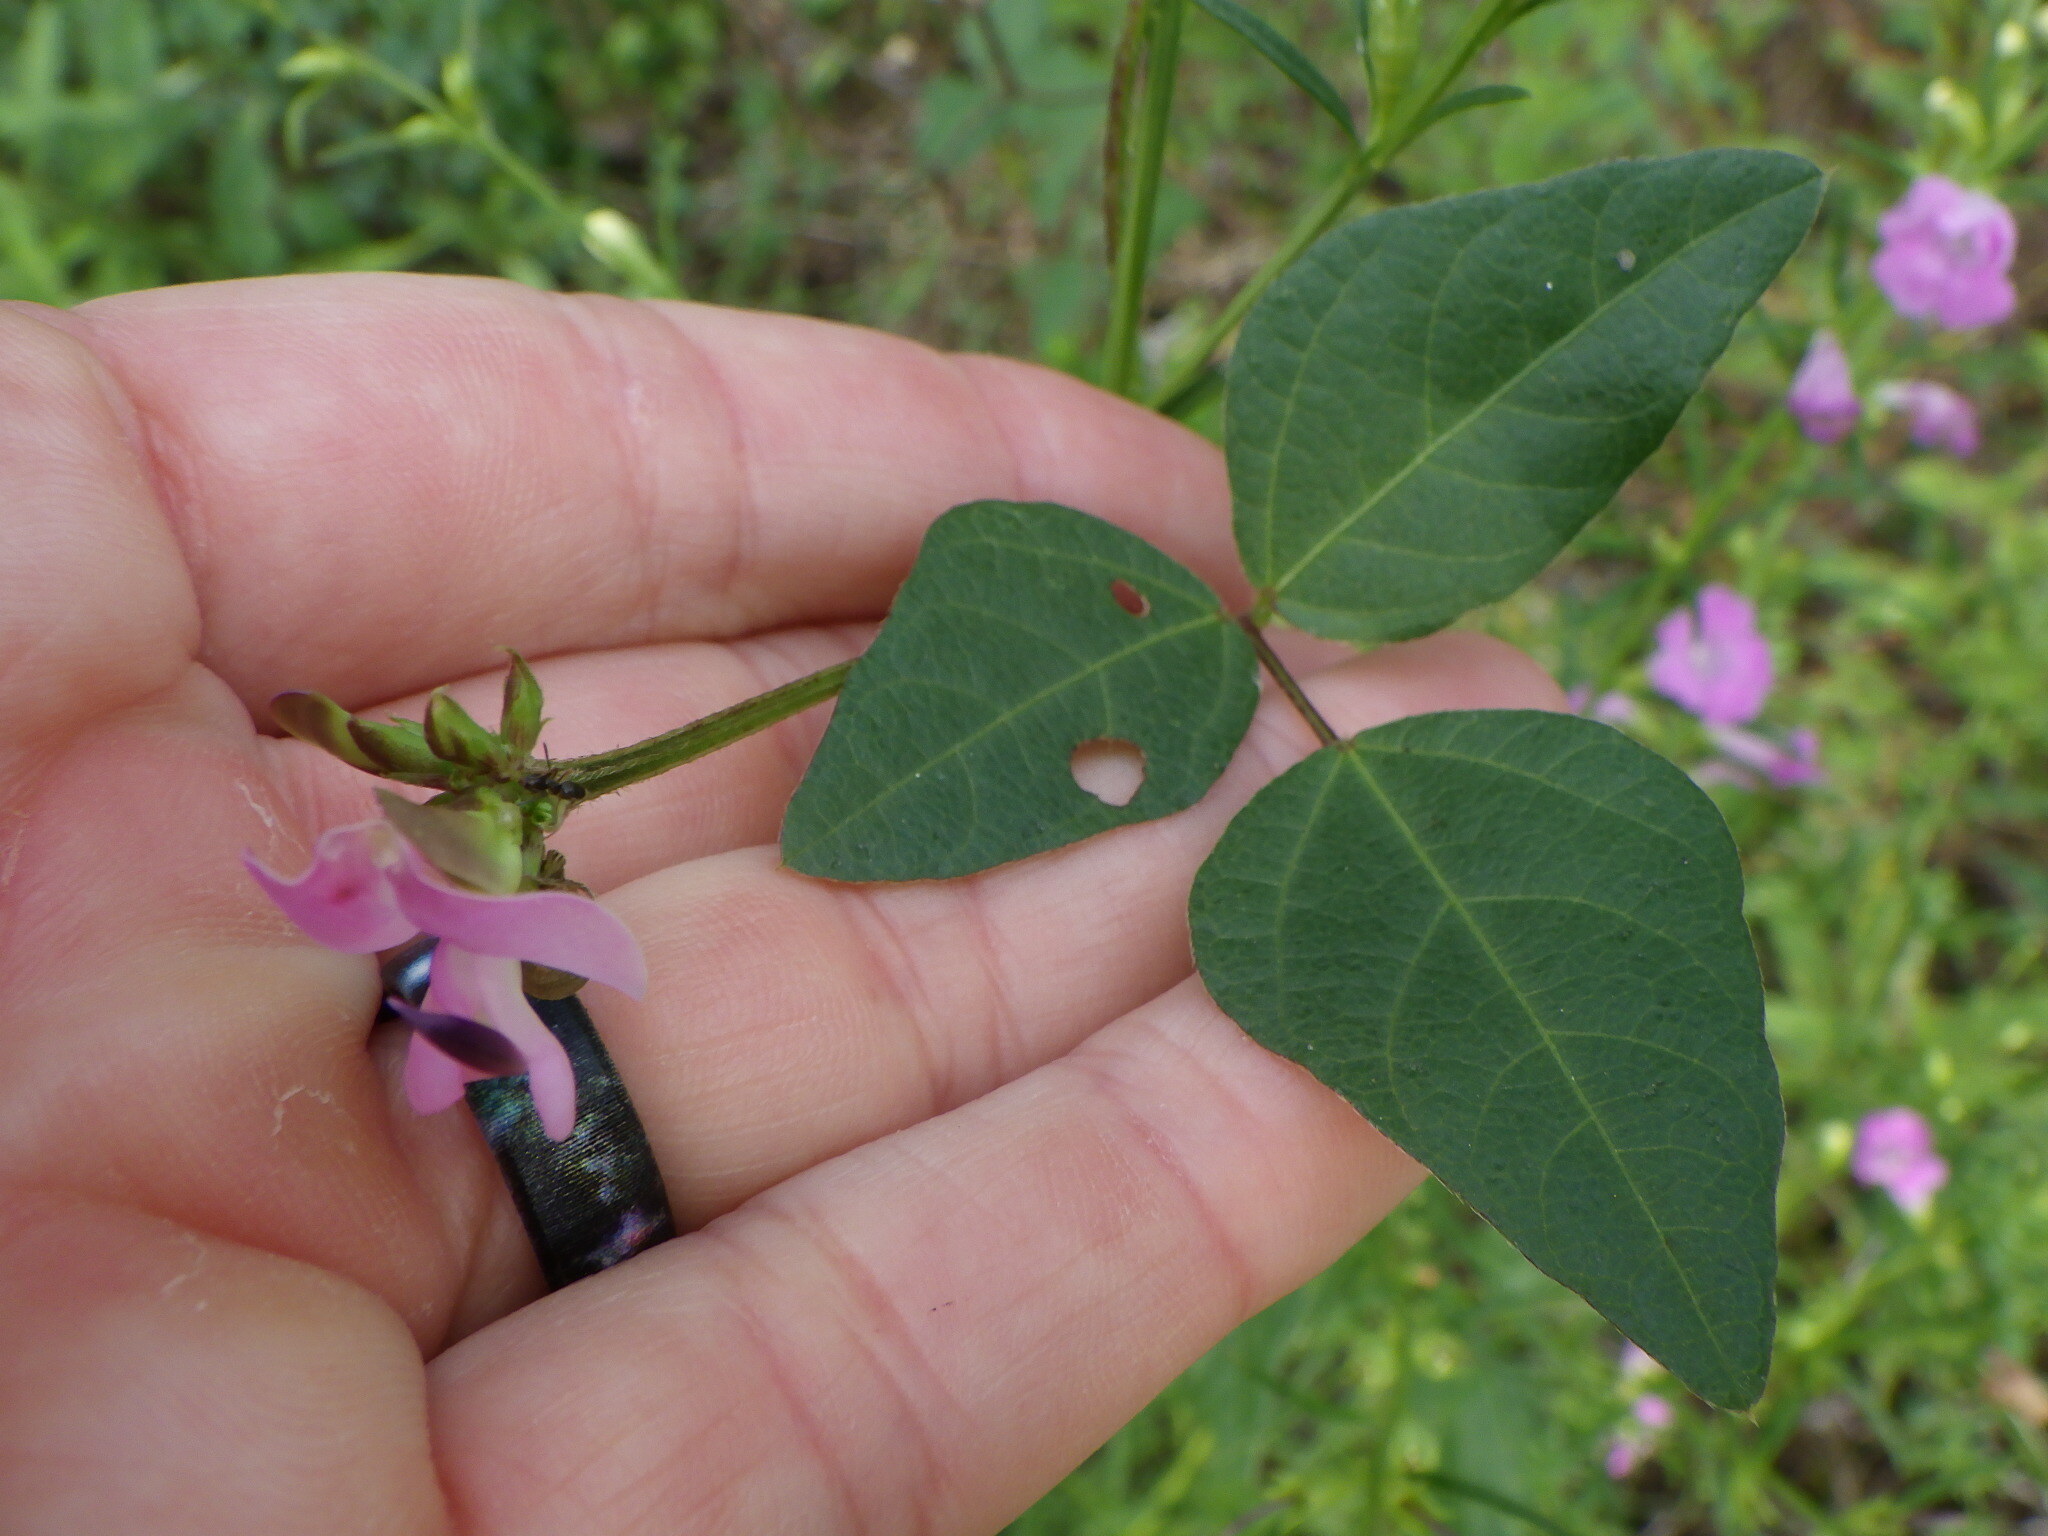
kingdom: Plantae
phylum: Tracheophyta
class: Magnoliopsida
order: Fabales
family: Fabaceae
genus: Strophostyles
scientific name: Strophostyles helvola
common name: Trailing wild bean
